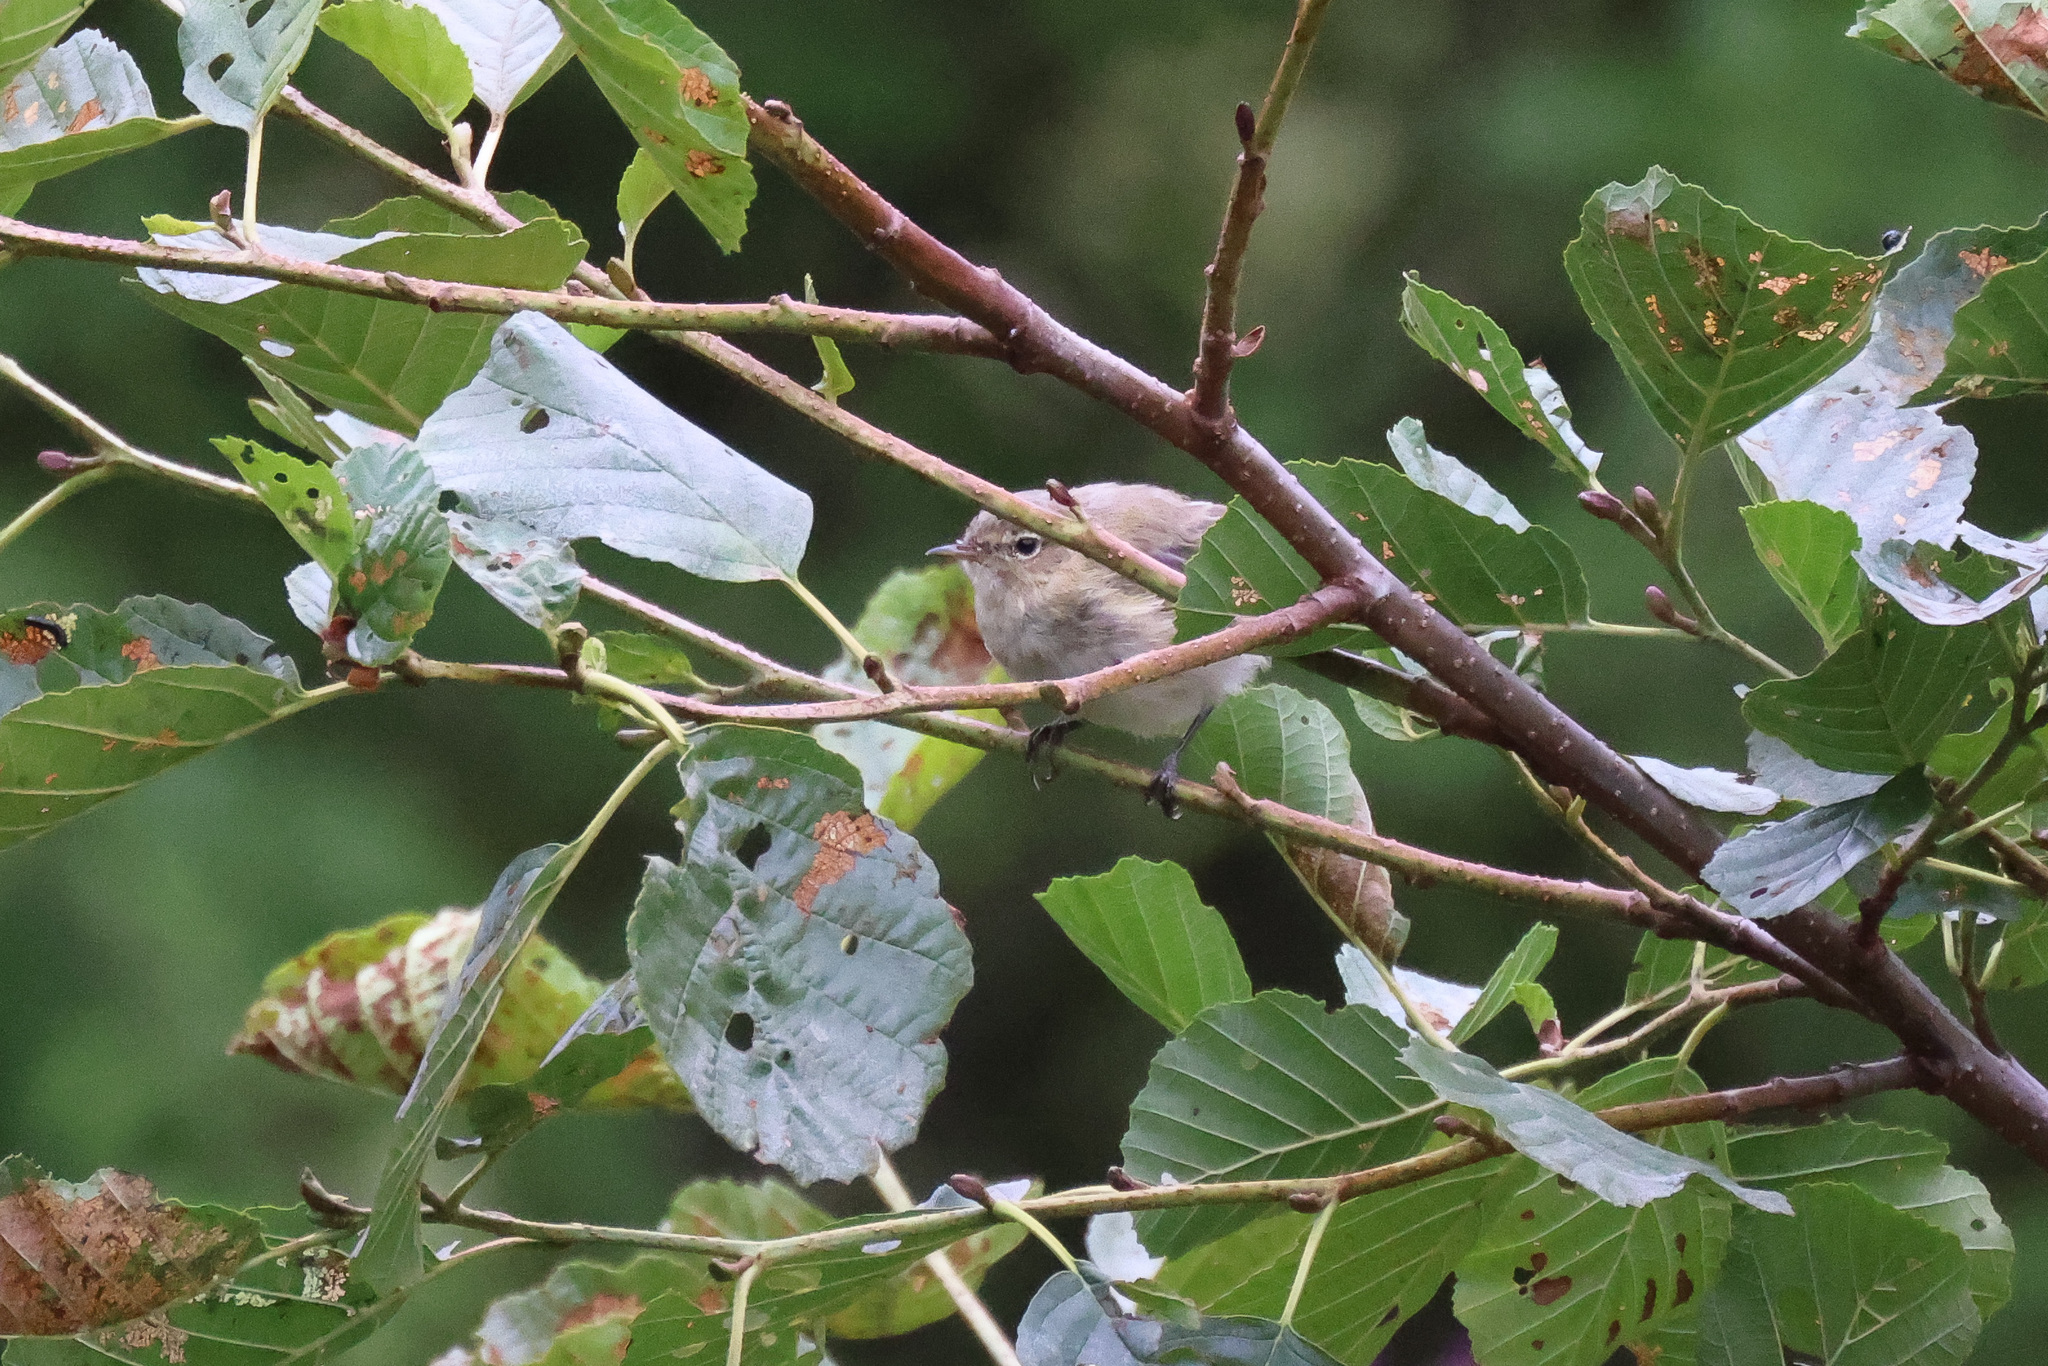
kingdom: Animalia
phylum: Chordata
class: Aves
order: Passeriformes
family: Phylloscopidae
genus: Phylloscopus
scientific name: Phylloscopus collybita
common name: Common chiffchaff
